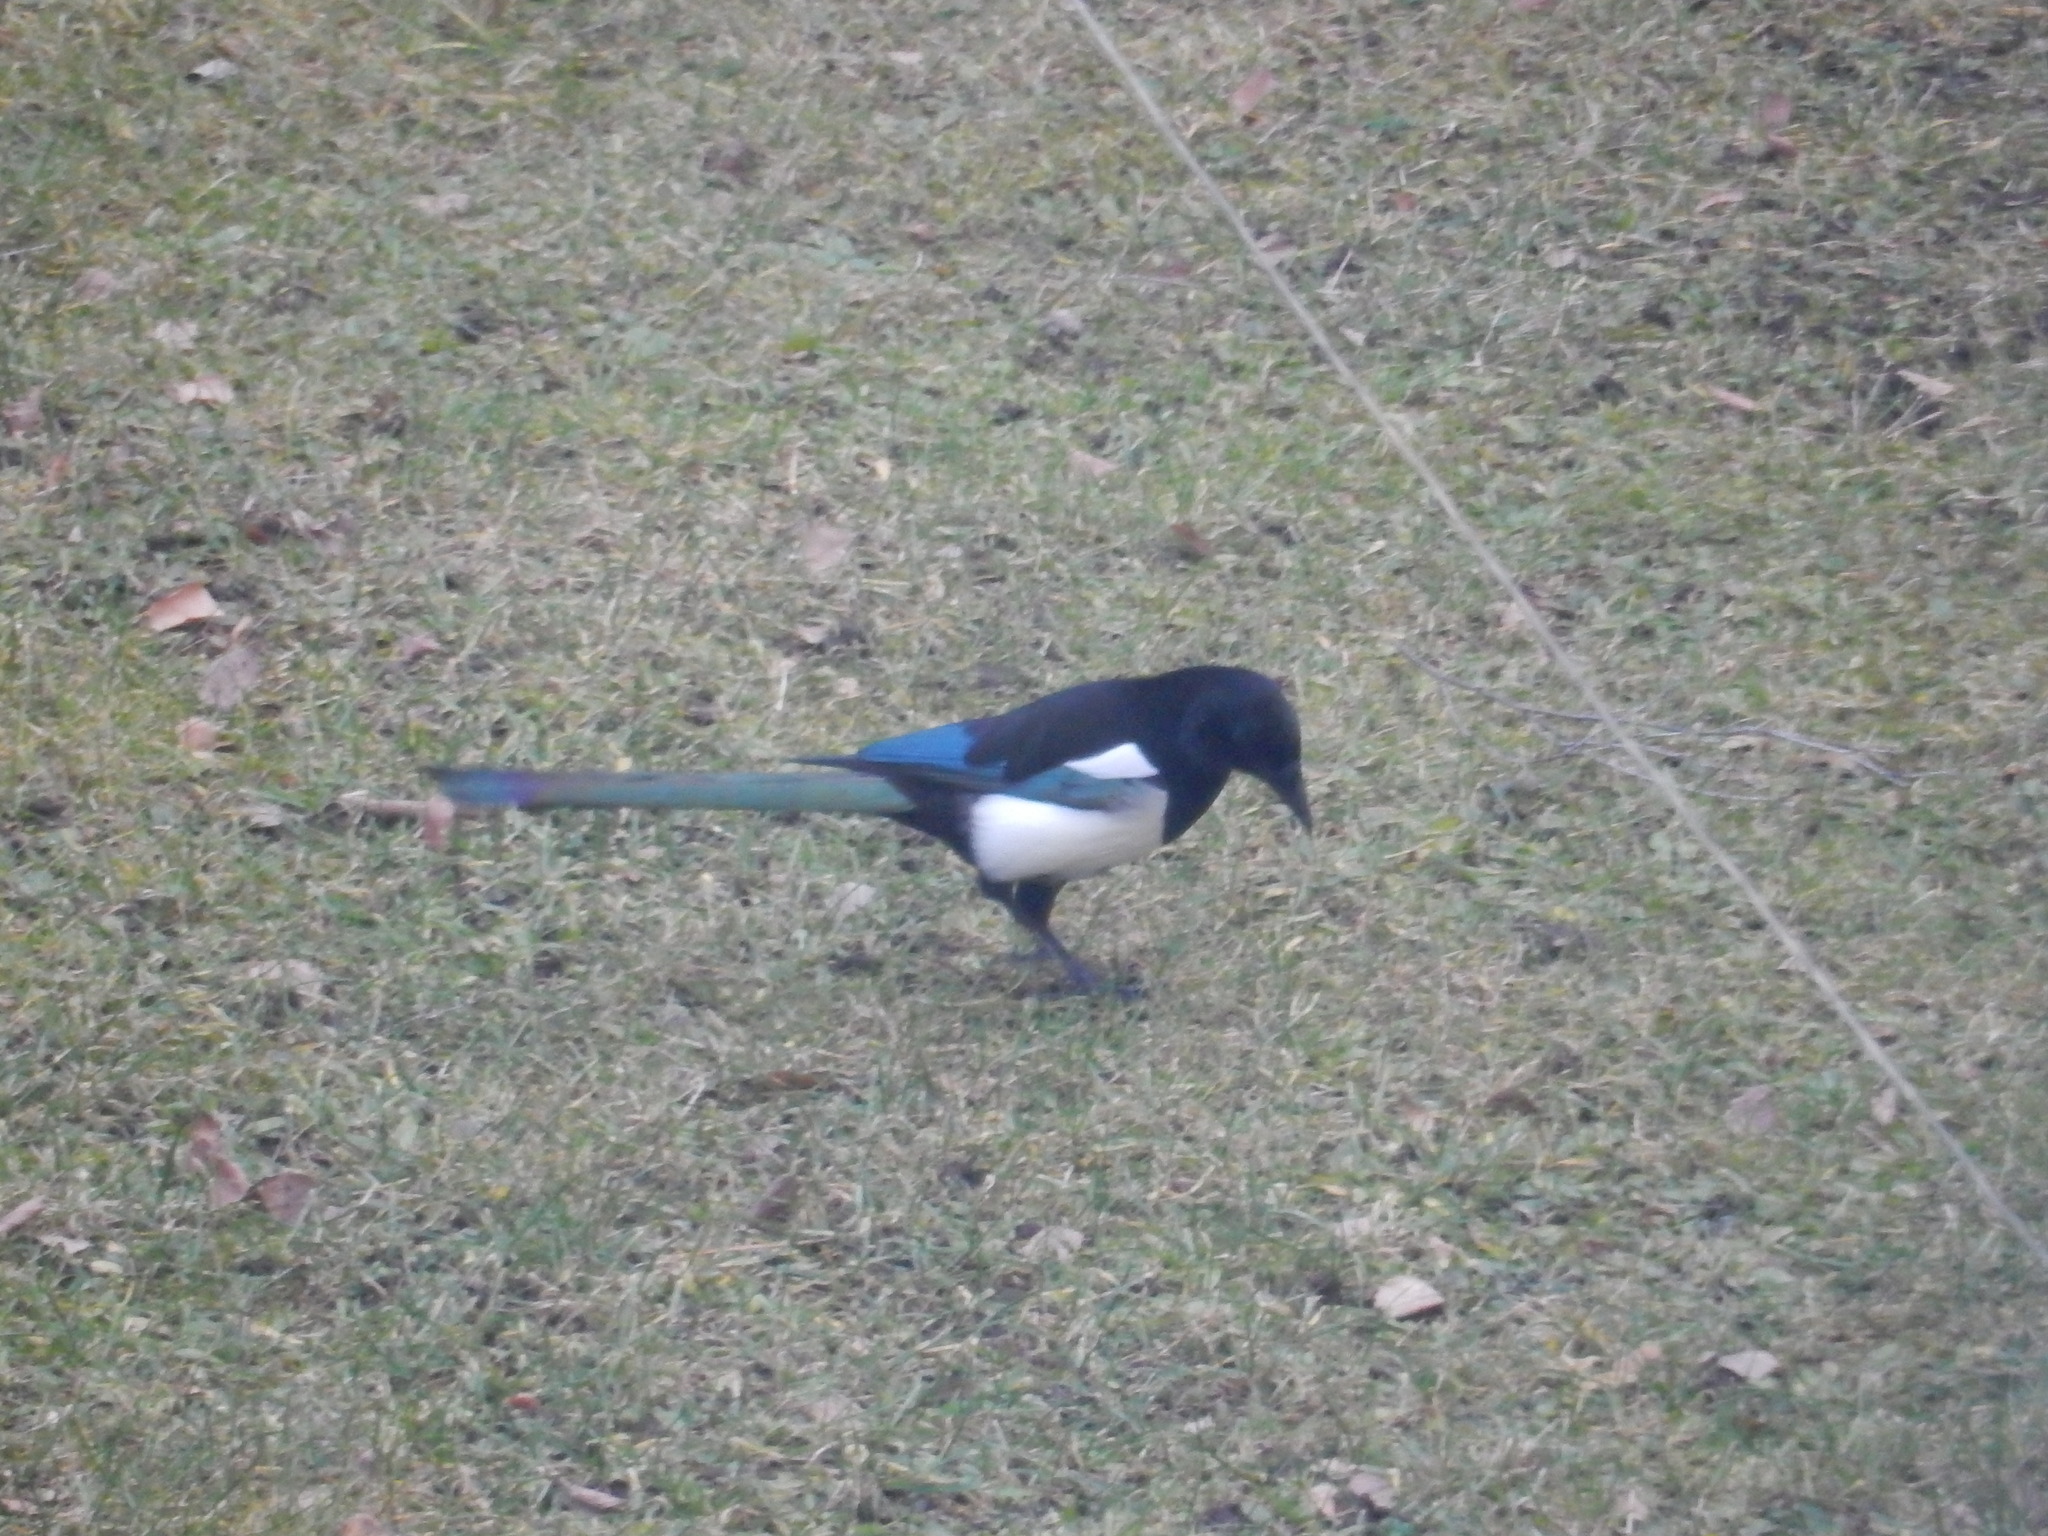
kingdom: Animalia
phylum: Chordata
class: Aves
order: Passeriformes
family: Corvidae
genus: Pica
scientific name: Pica pica
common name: Eurasian magpie
